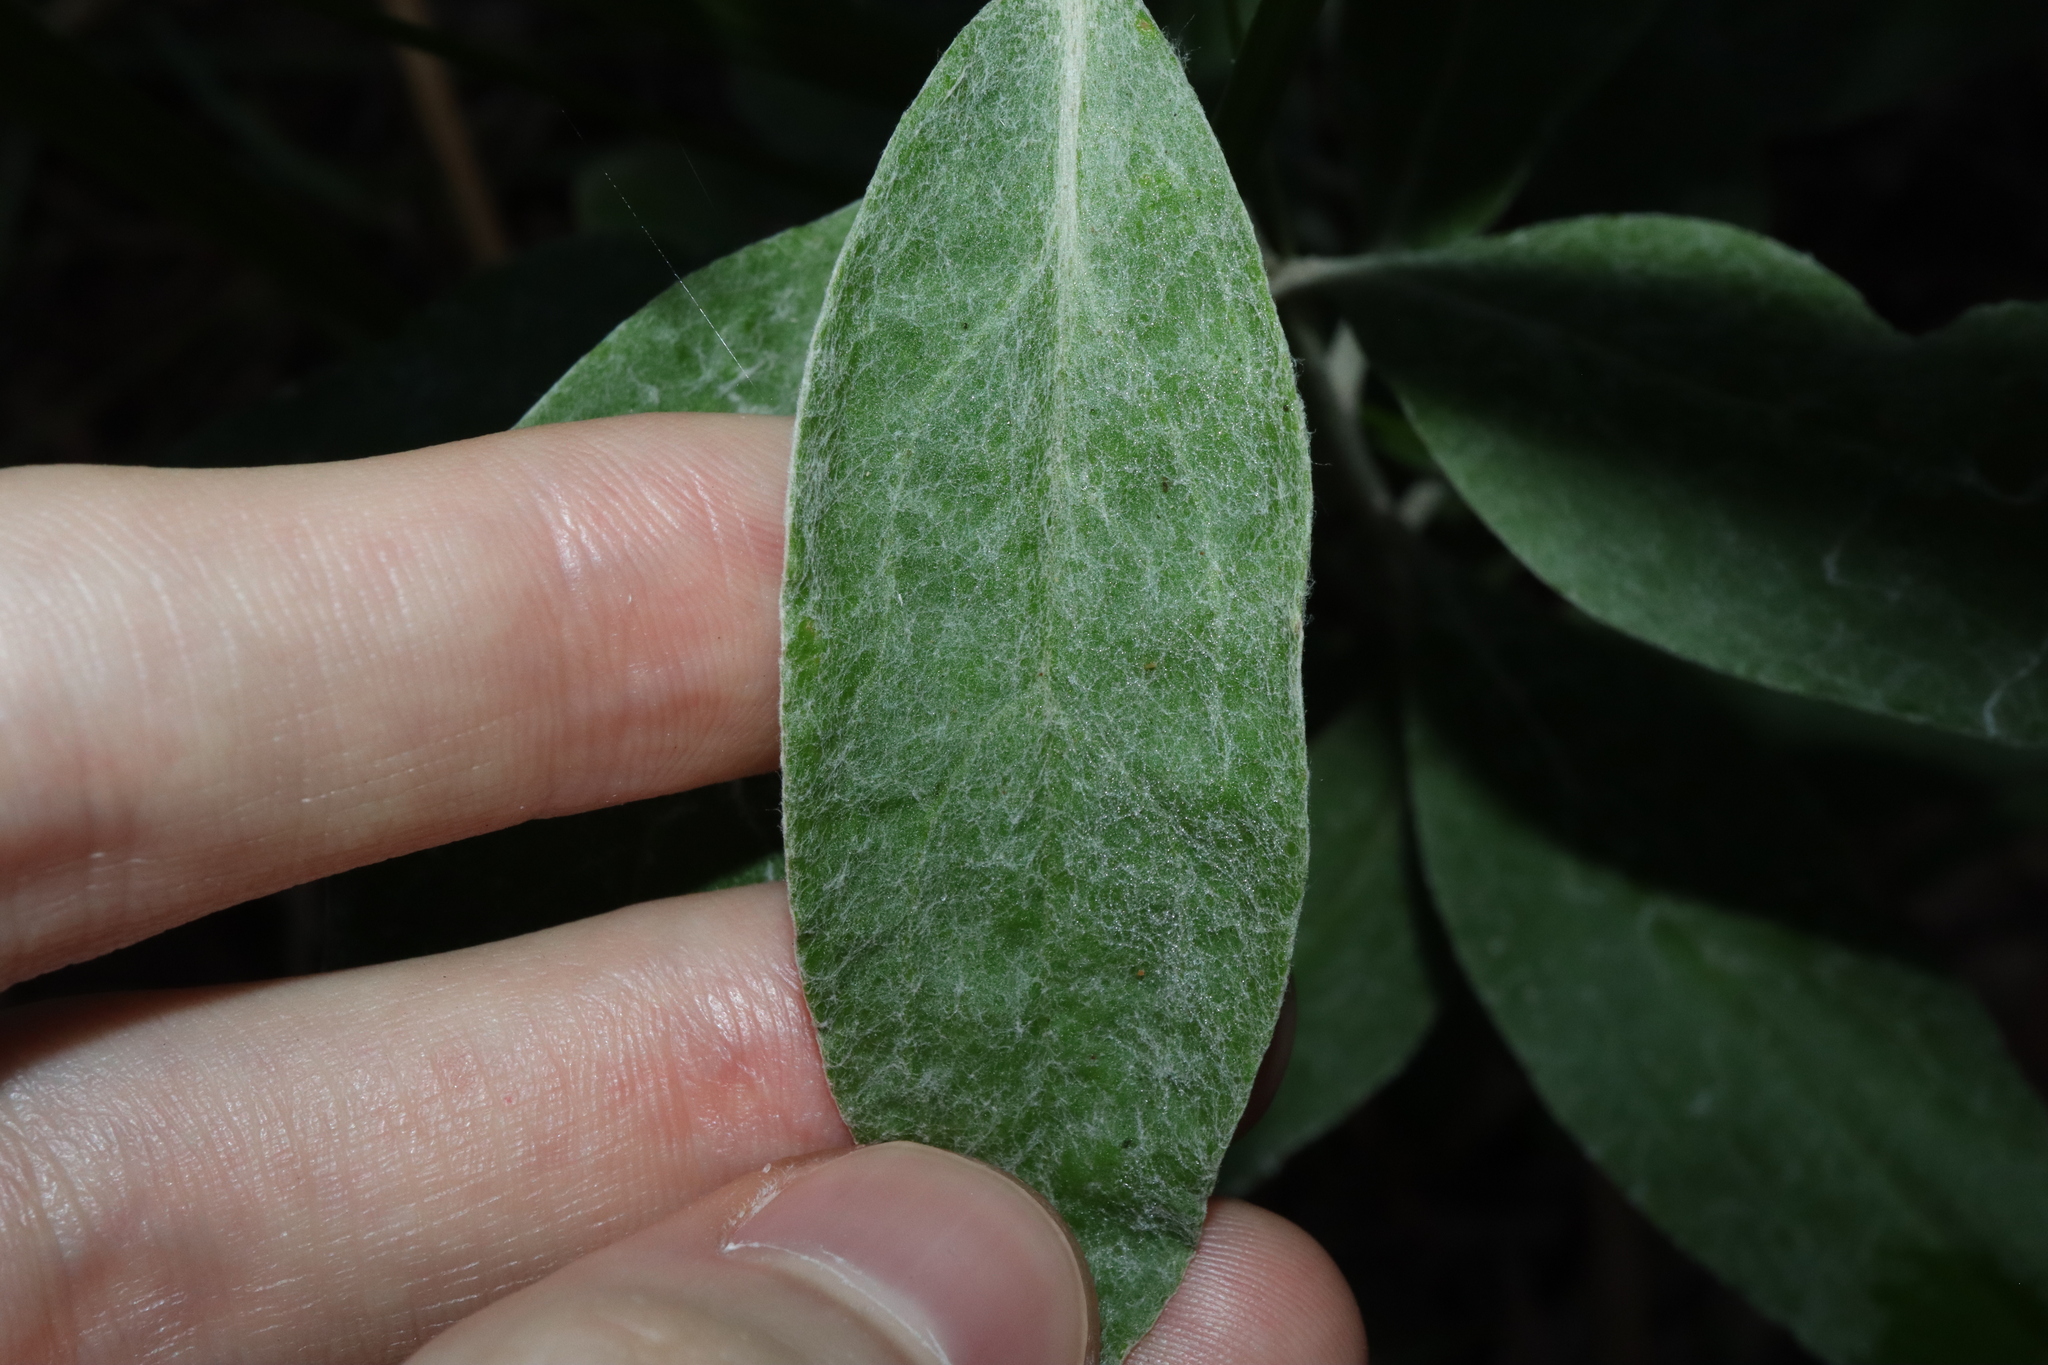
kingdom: Plantae
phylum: Tracheophyta
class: Magnoliopsida
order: Asterales
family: Asteraceae
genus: Leucozoma
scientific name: Leucozoma elatum
